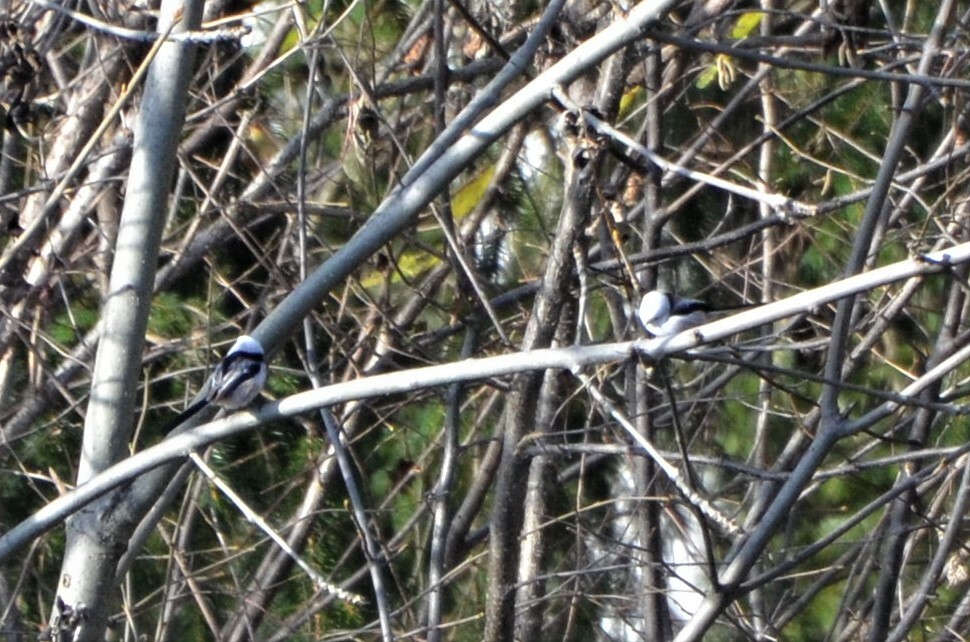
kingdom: Animalia
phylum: Chordata
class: Aves
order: Passeriformes
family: Aegithalidae
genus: Aegithalos
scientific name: Aegithalos caudatus
